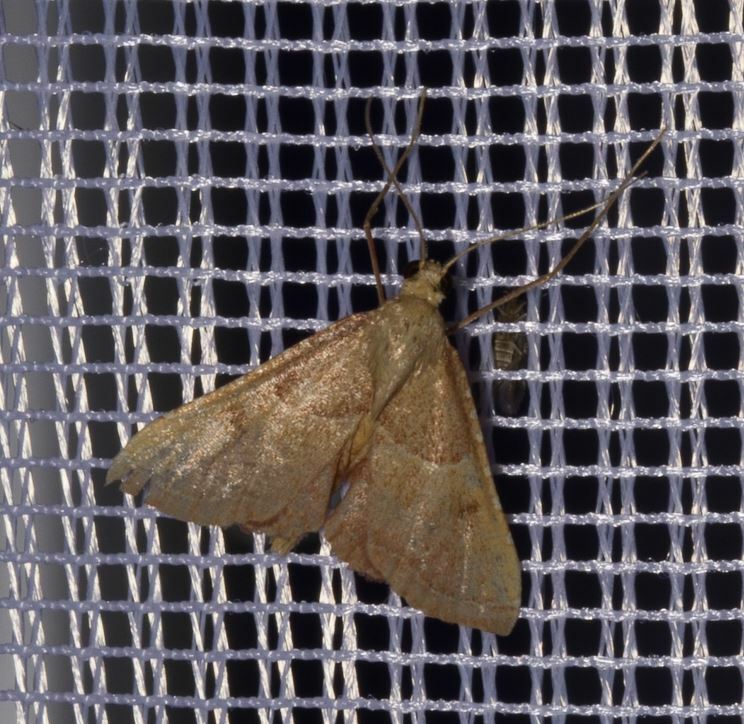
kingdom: Animalia
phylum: Arthropoda
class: Insecta
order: Lepidoptera
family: Pyralidae
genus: Endotricha
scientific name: Endotricha flammealis
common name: Rosy tabby
